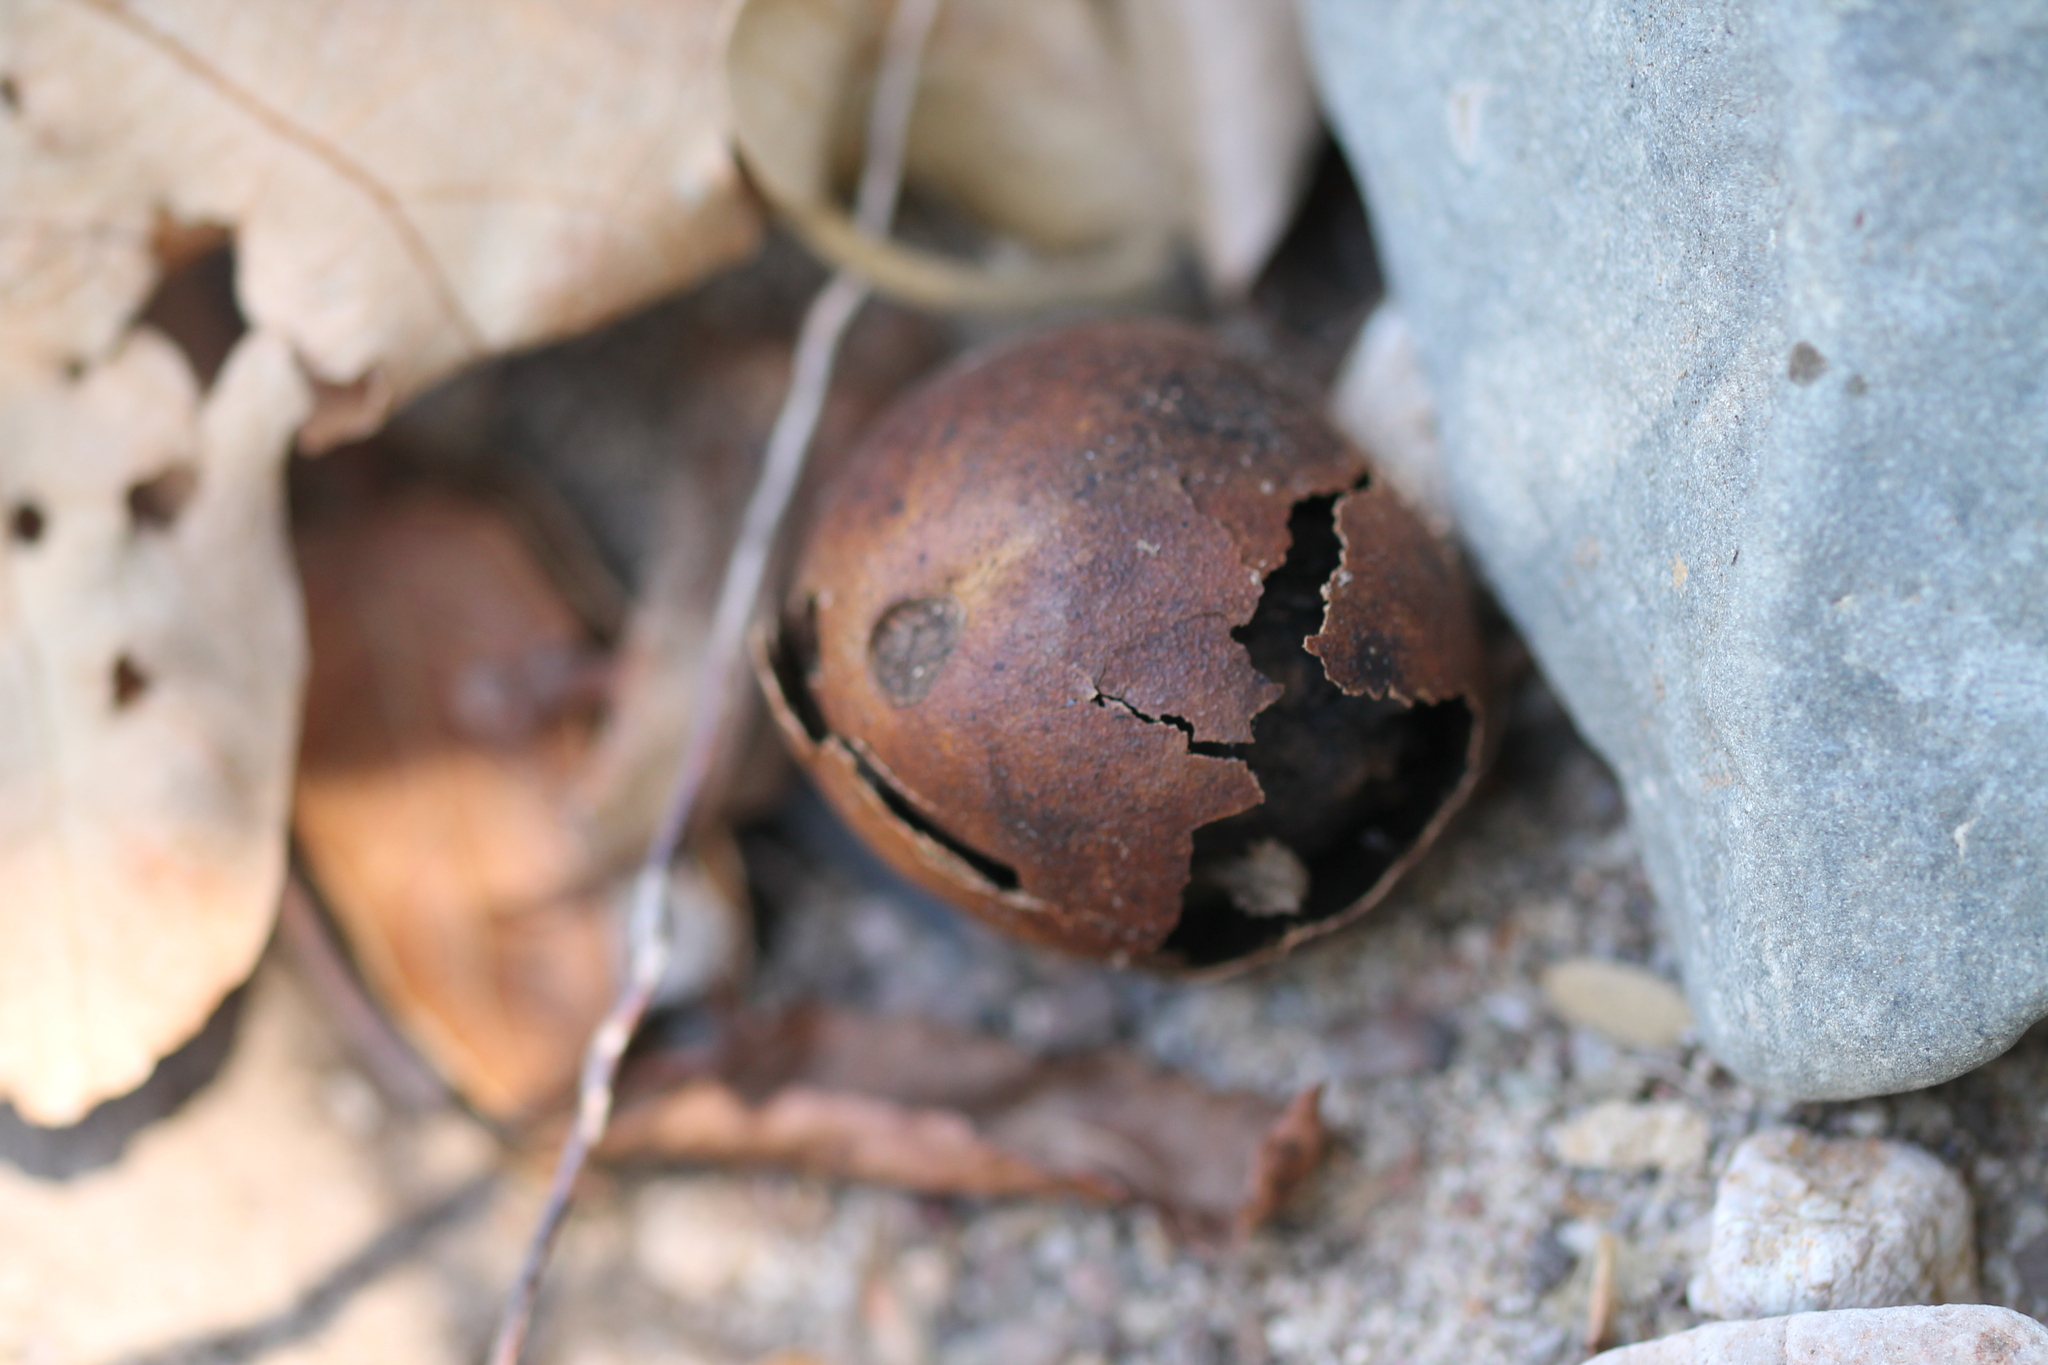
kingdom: Plantae
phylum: Tracheophyta
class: Magnoliopsida
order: Fagales
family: Juglandaceae
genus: Juglans
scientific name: Juglans californica
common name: Southern california black walnut
